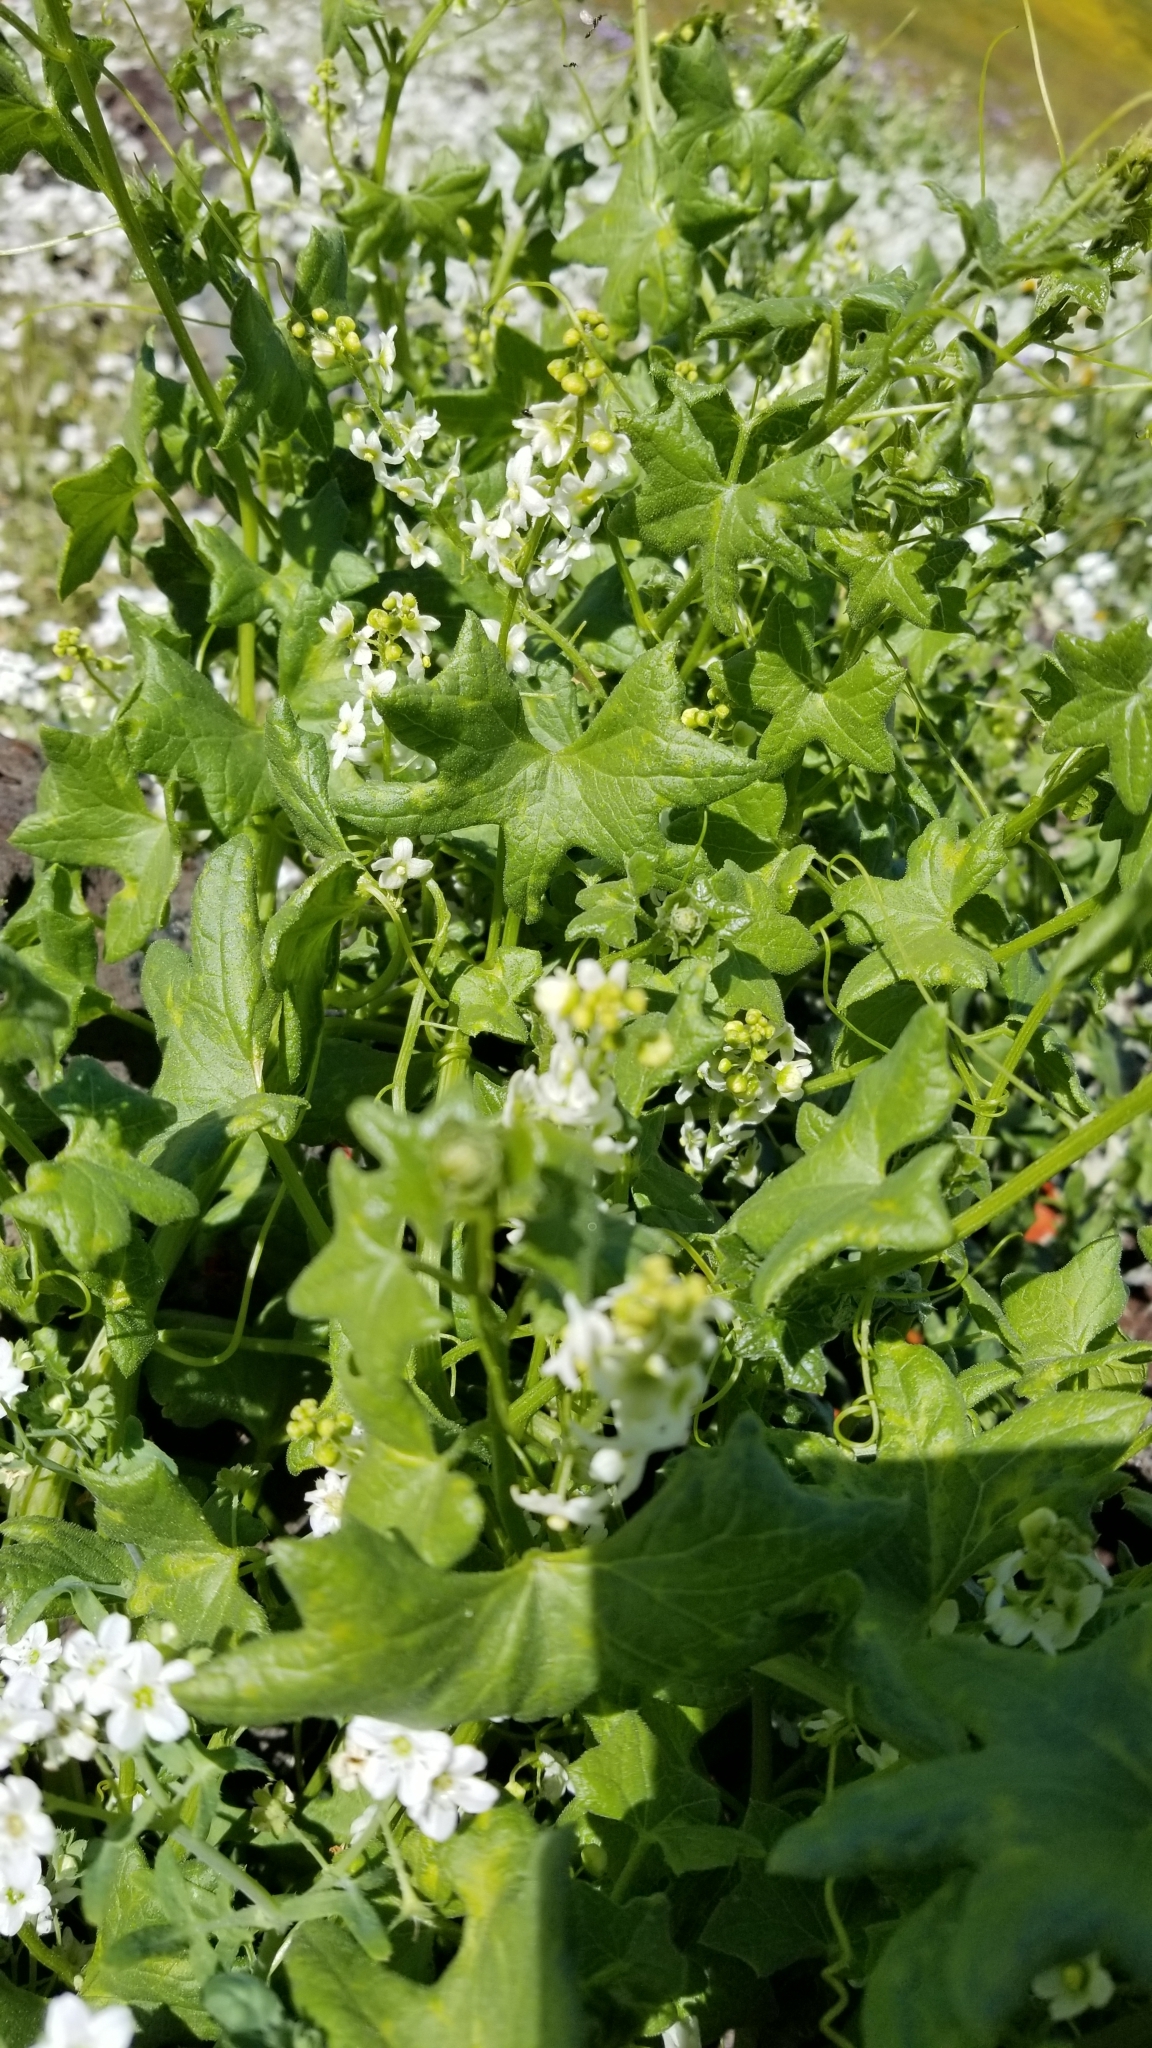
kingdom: Plantae
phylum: Tracheophyta
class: Magnoliopsida
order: Cucurbitales
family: Cucurbitaceae
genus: Marah
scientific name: Marah fabacea
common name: California manroot
